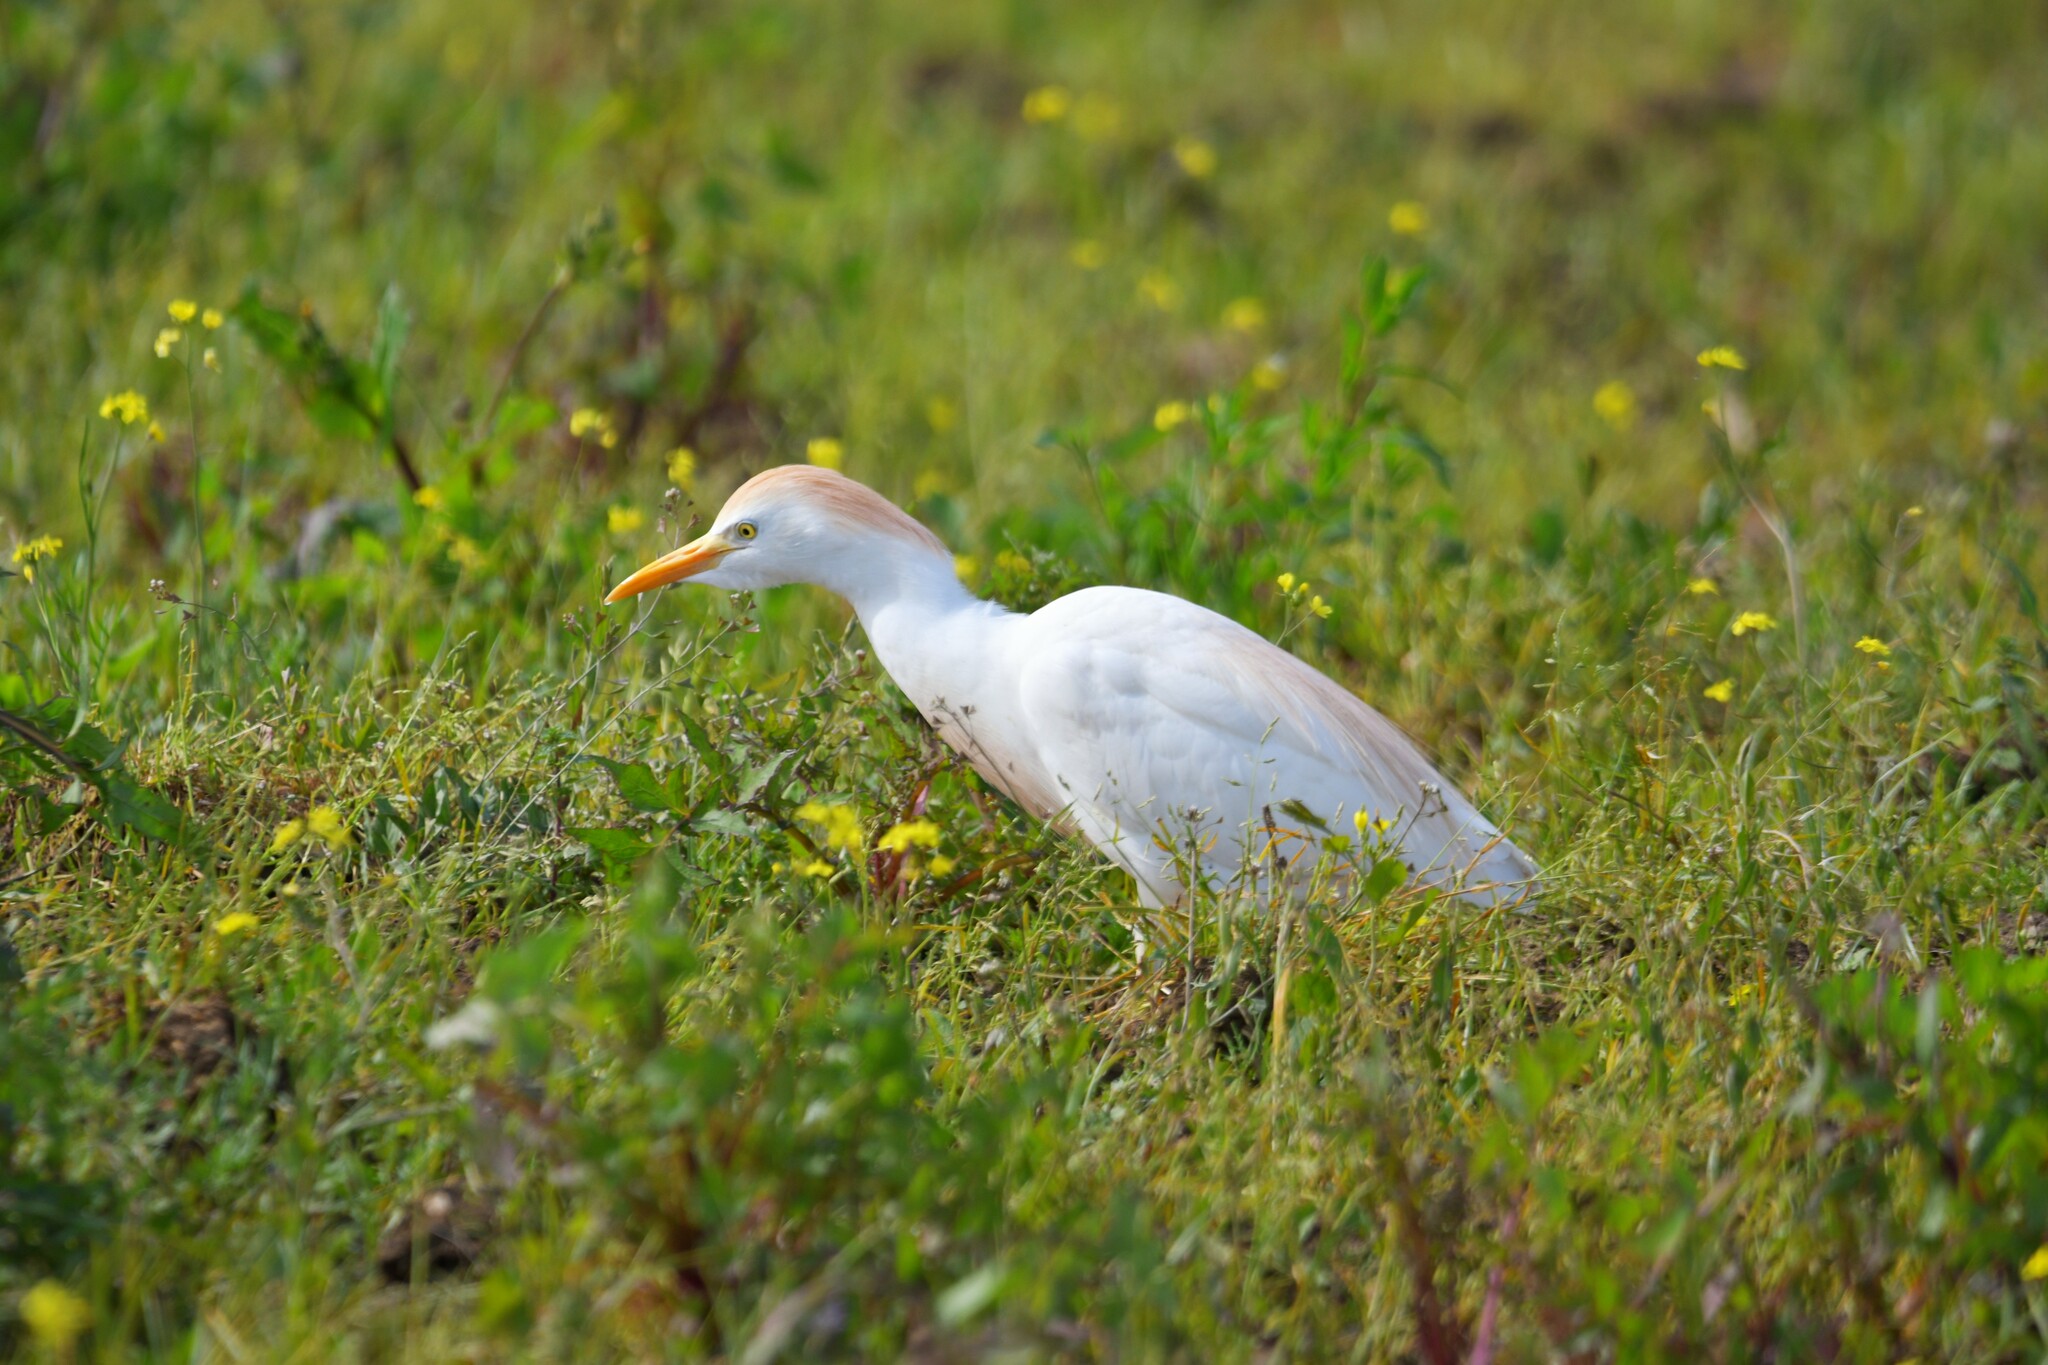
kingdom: Animalia
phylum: Chordata
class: Aves
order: Pelecaniformes
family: Ardeidae
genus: Bubulcus
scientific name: Bubulcus ibis
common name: Cattle egret
